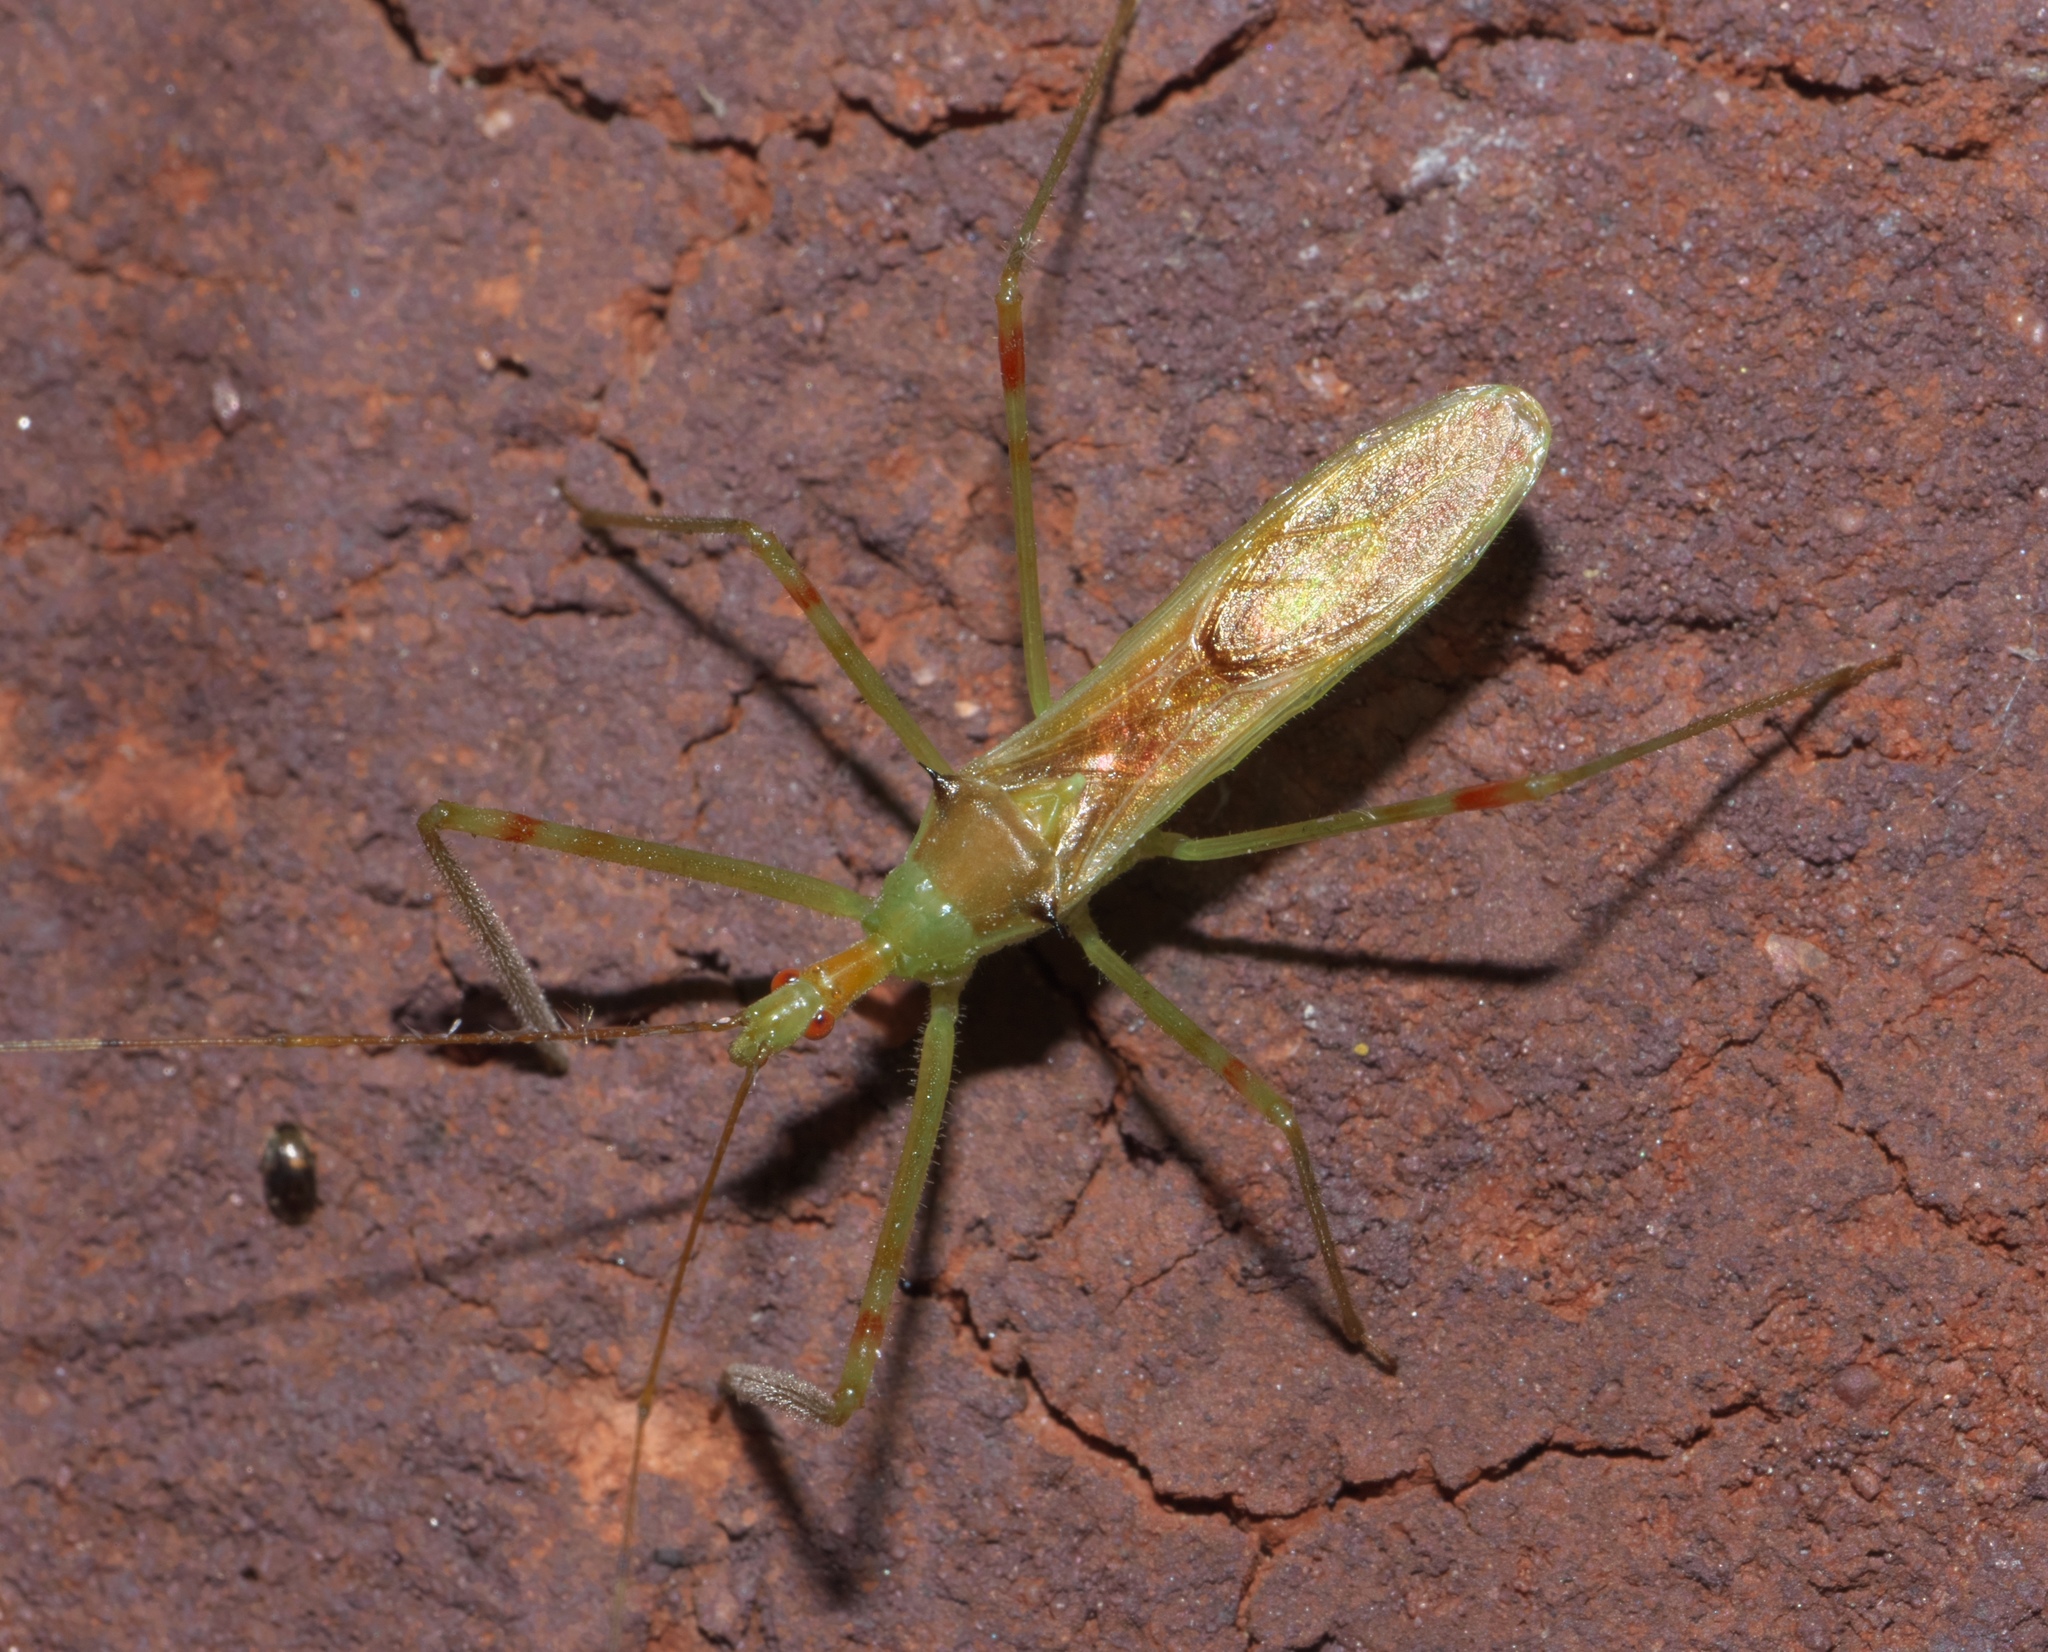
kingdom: Animalia
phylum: Arthropoda
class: Insecta
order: Hemiptera
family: Reduviidae
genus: Zelus
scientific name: Zelus luridus
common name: Pale green assassin bug
